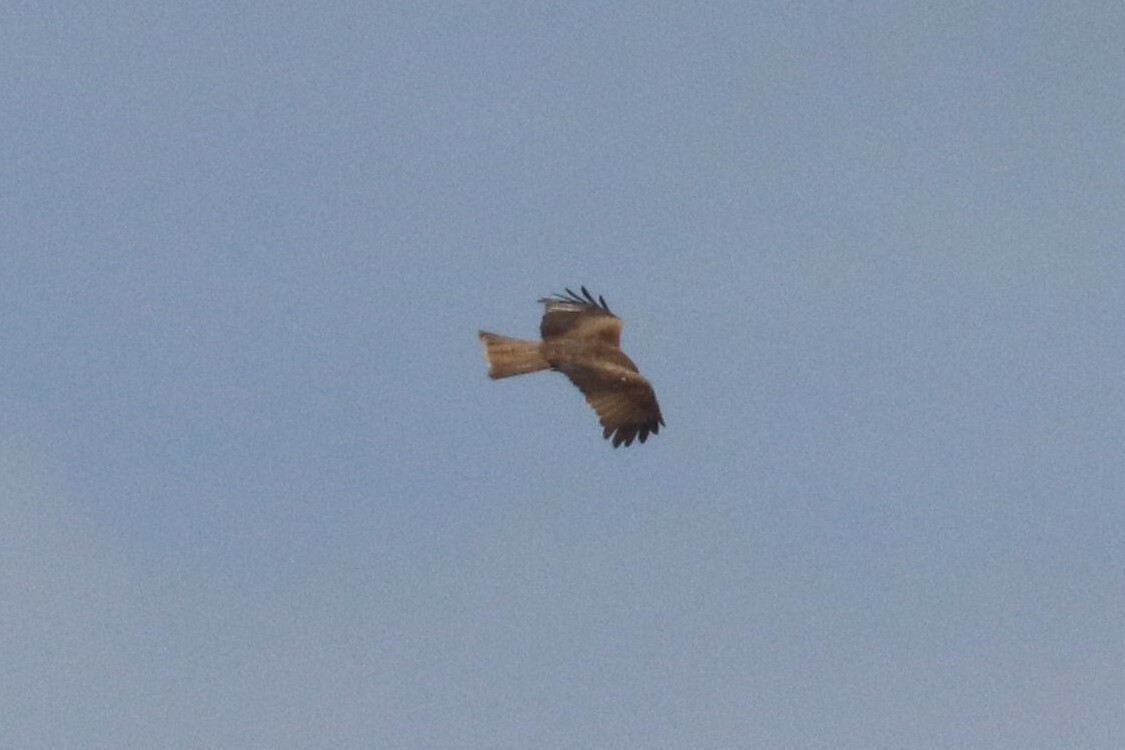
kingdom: Animalia
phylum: Chordata
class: Aves
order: Accipitriformes
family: Accipitridae
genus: Milvus
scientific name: Milvus migrans
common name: Black kite
